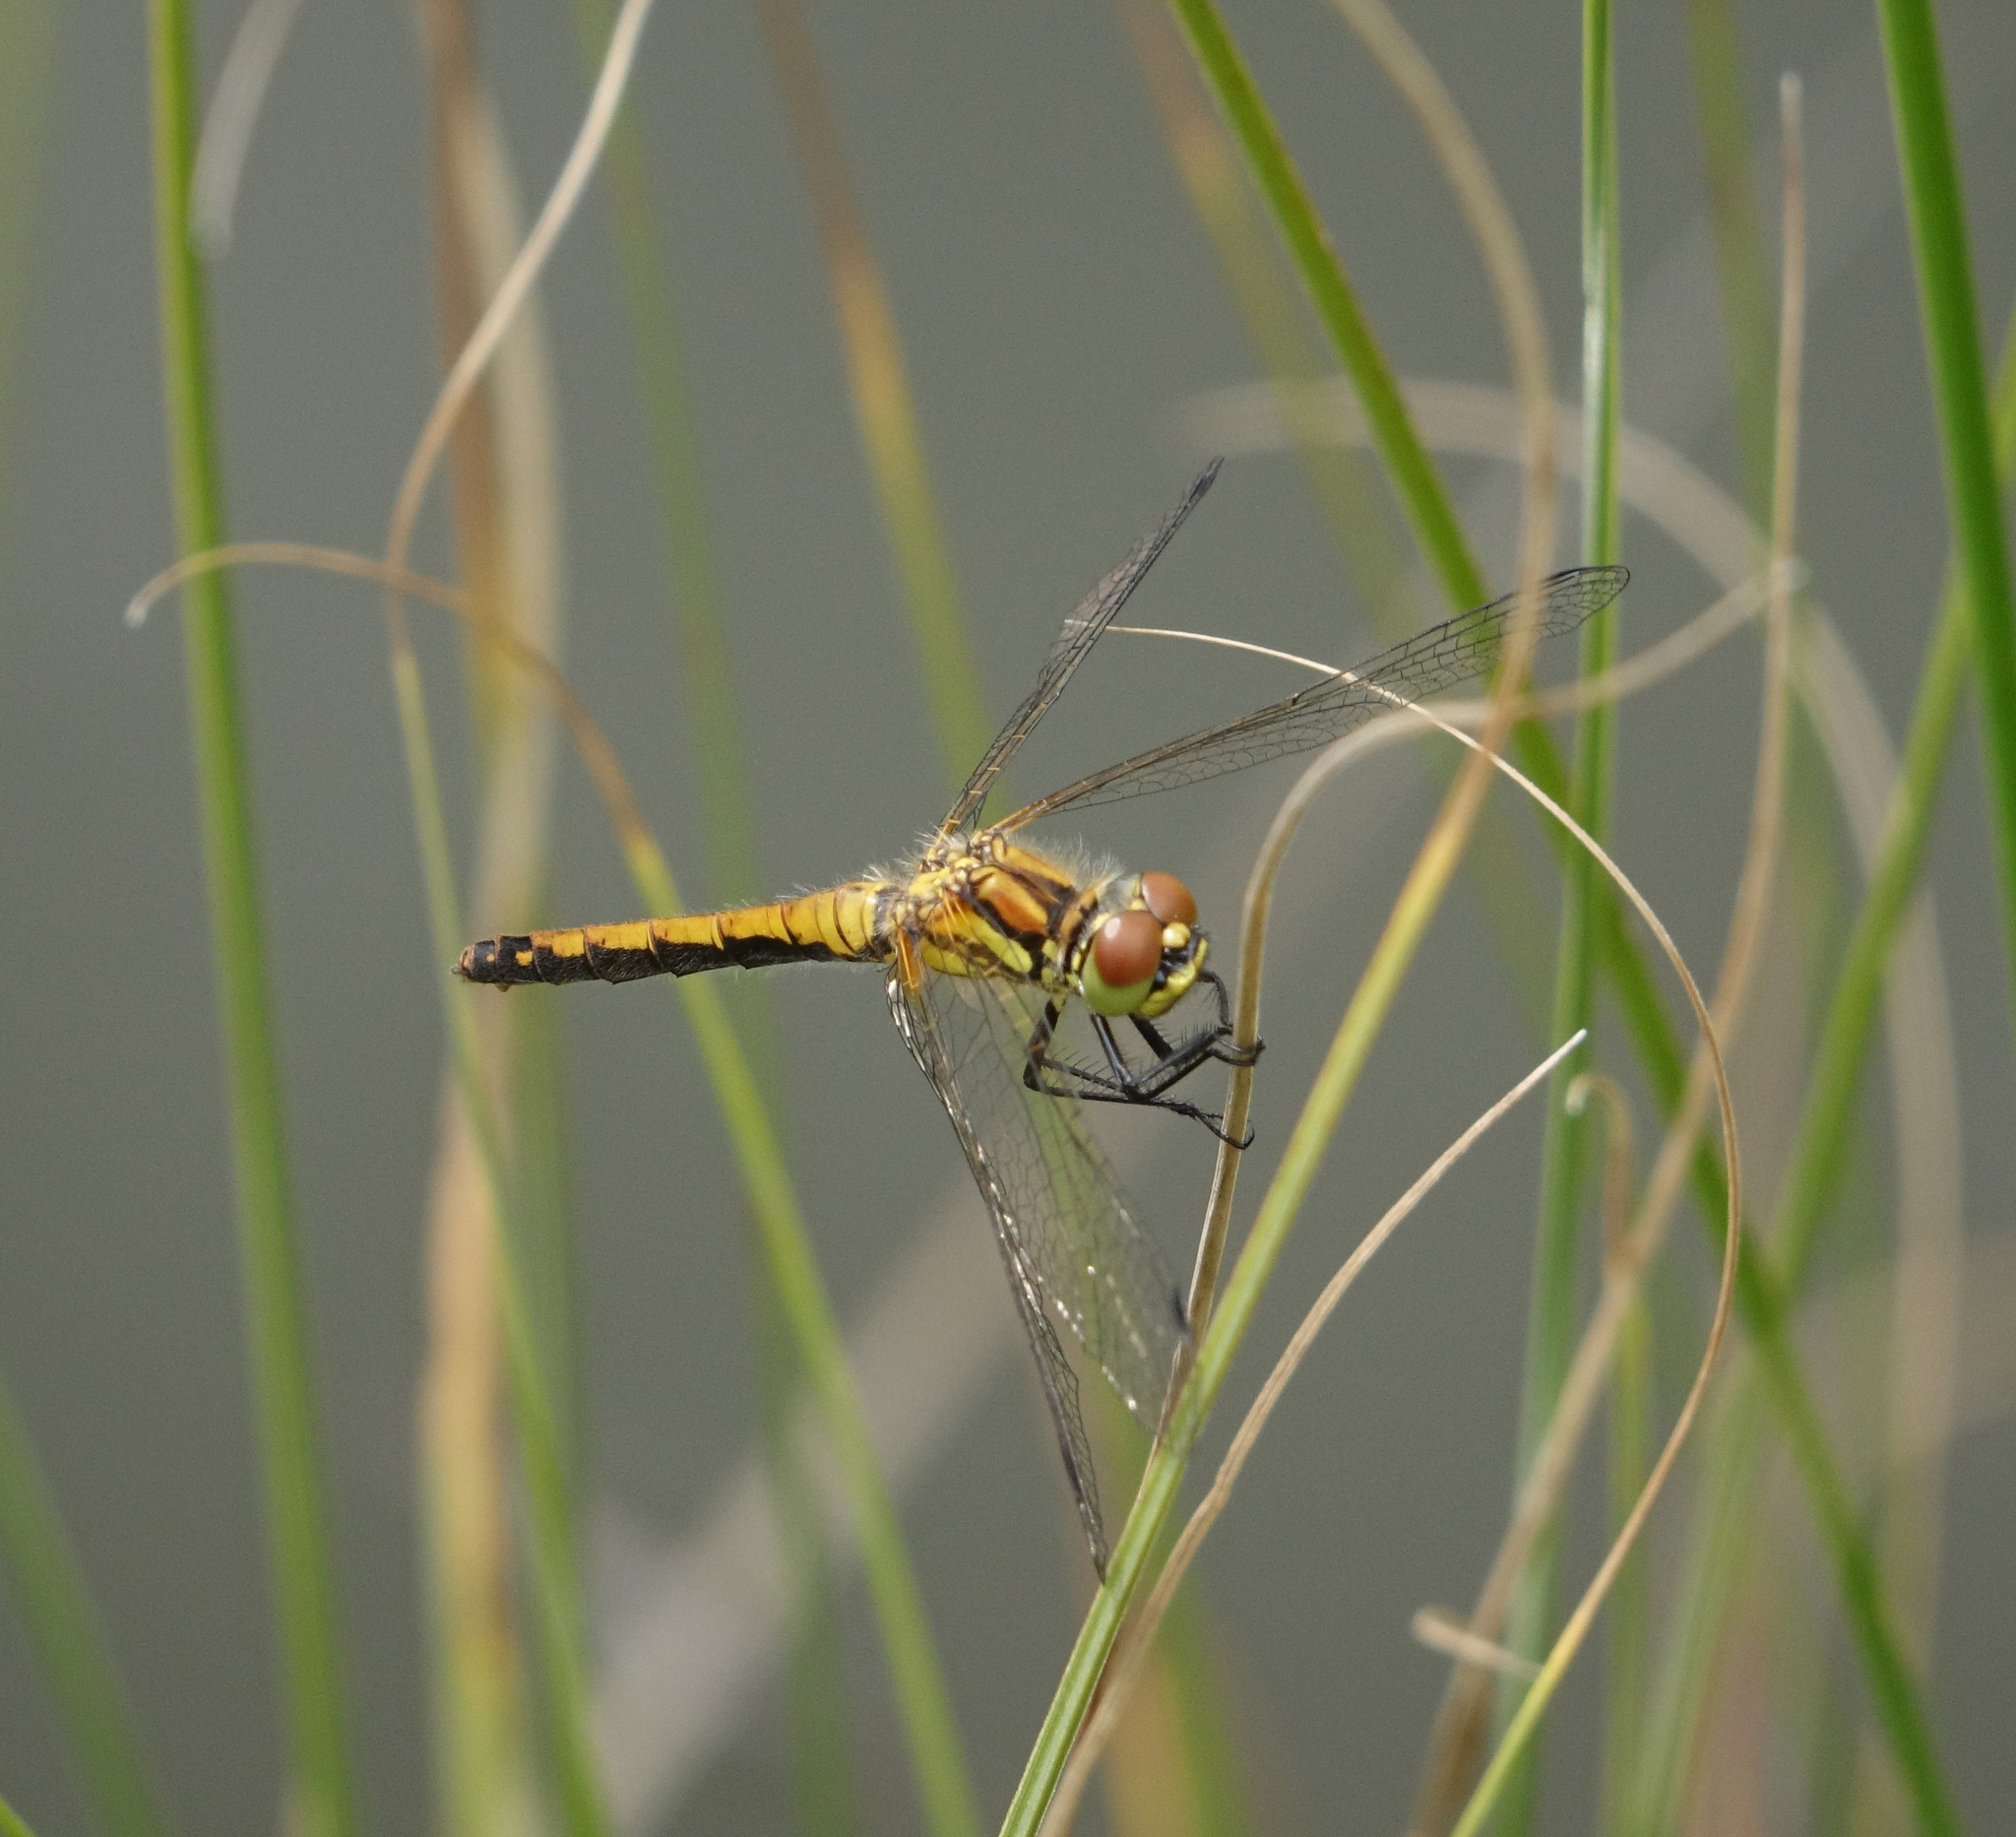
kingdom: Animalia
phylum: Arthropoda
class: Insecta
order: Odonata
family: Libellulidae
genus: Sympetrum
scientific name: Sympetrum danae
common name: Black darter
